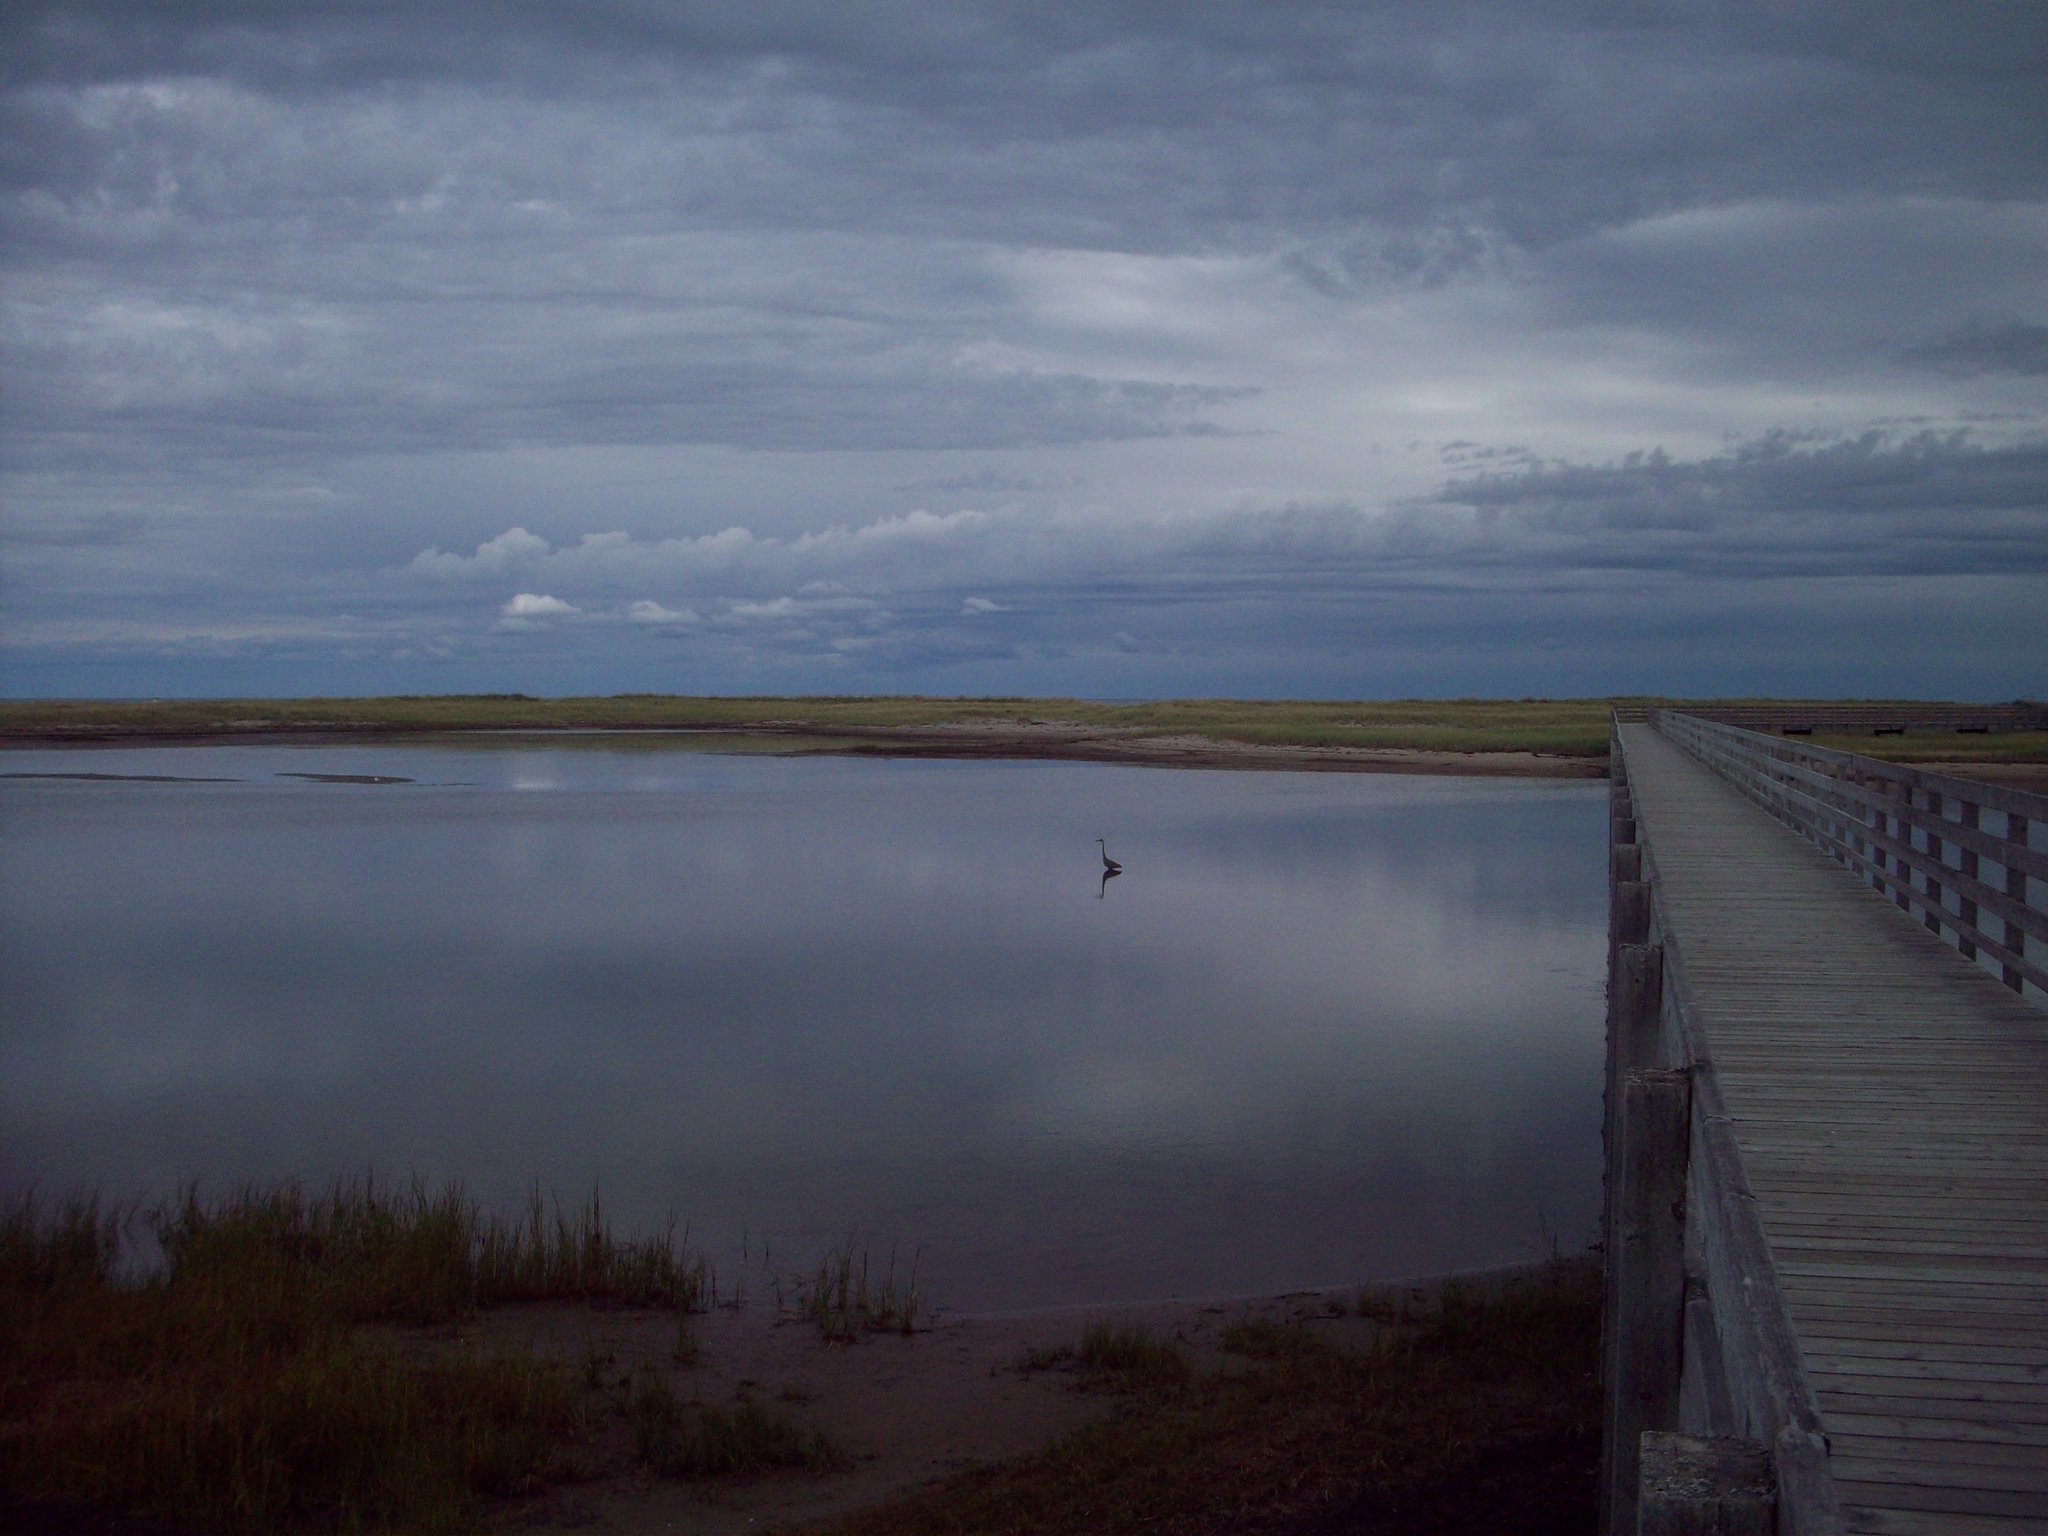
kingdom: Animalia
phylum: Chordata
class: Aves
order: Pelecaniformes
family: Ardeidae
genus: Ardea
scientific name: Ardea herodias
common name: Great blue heron
